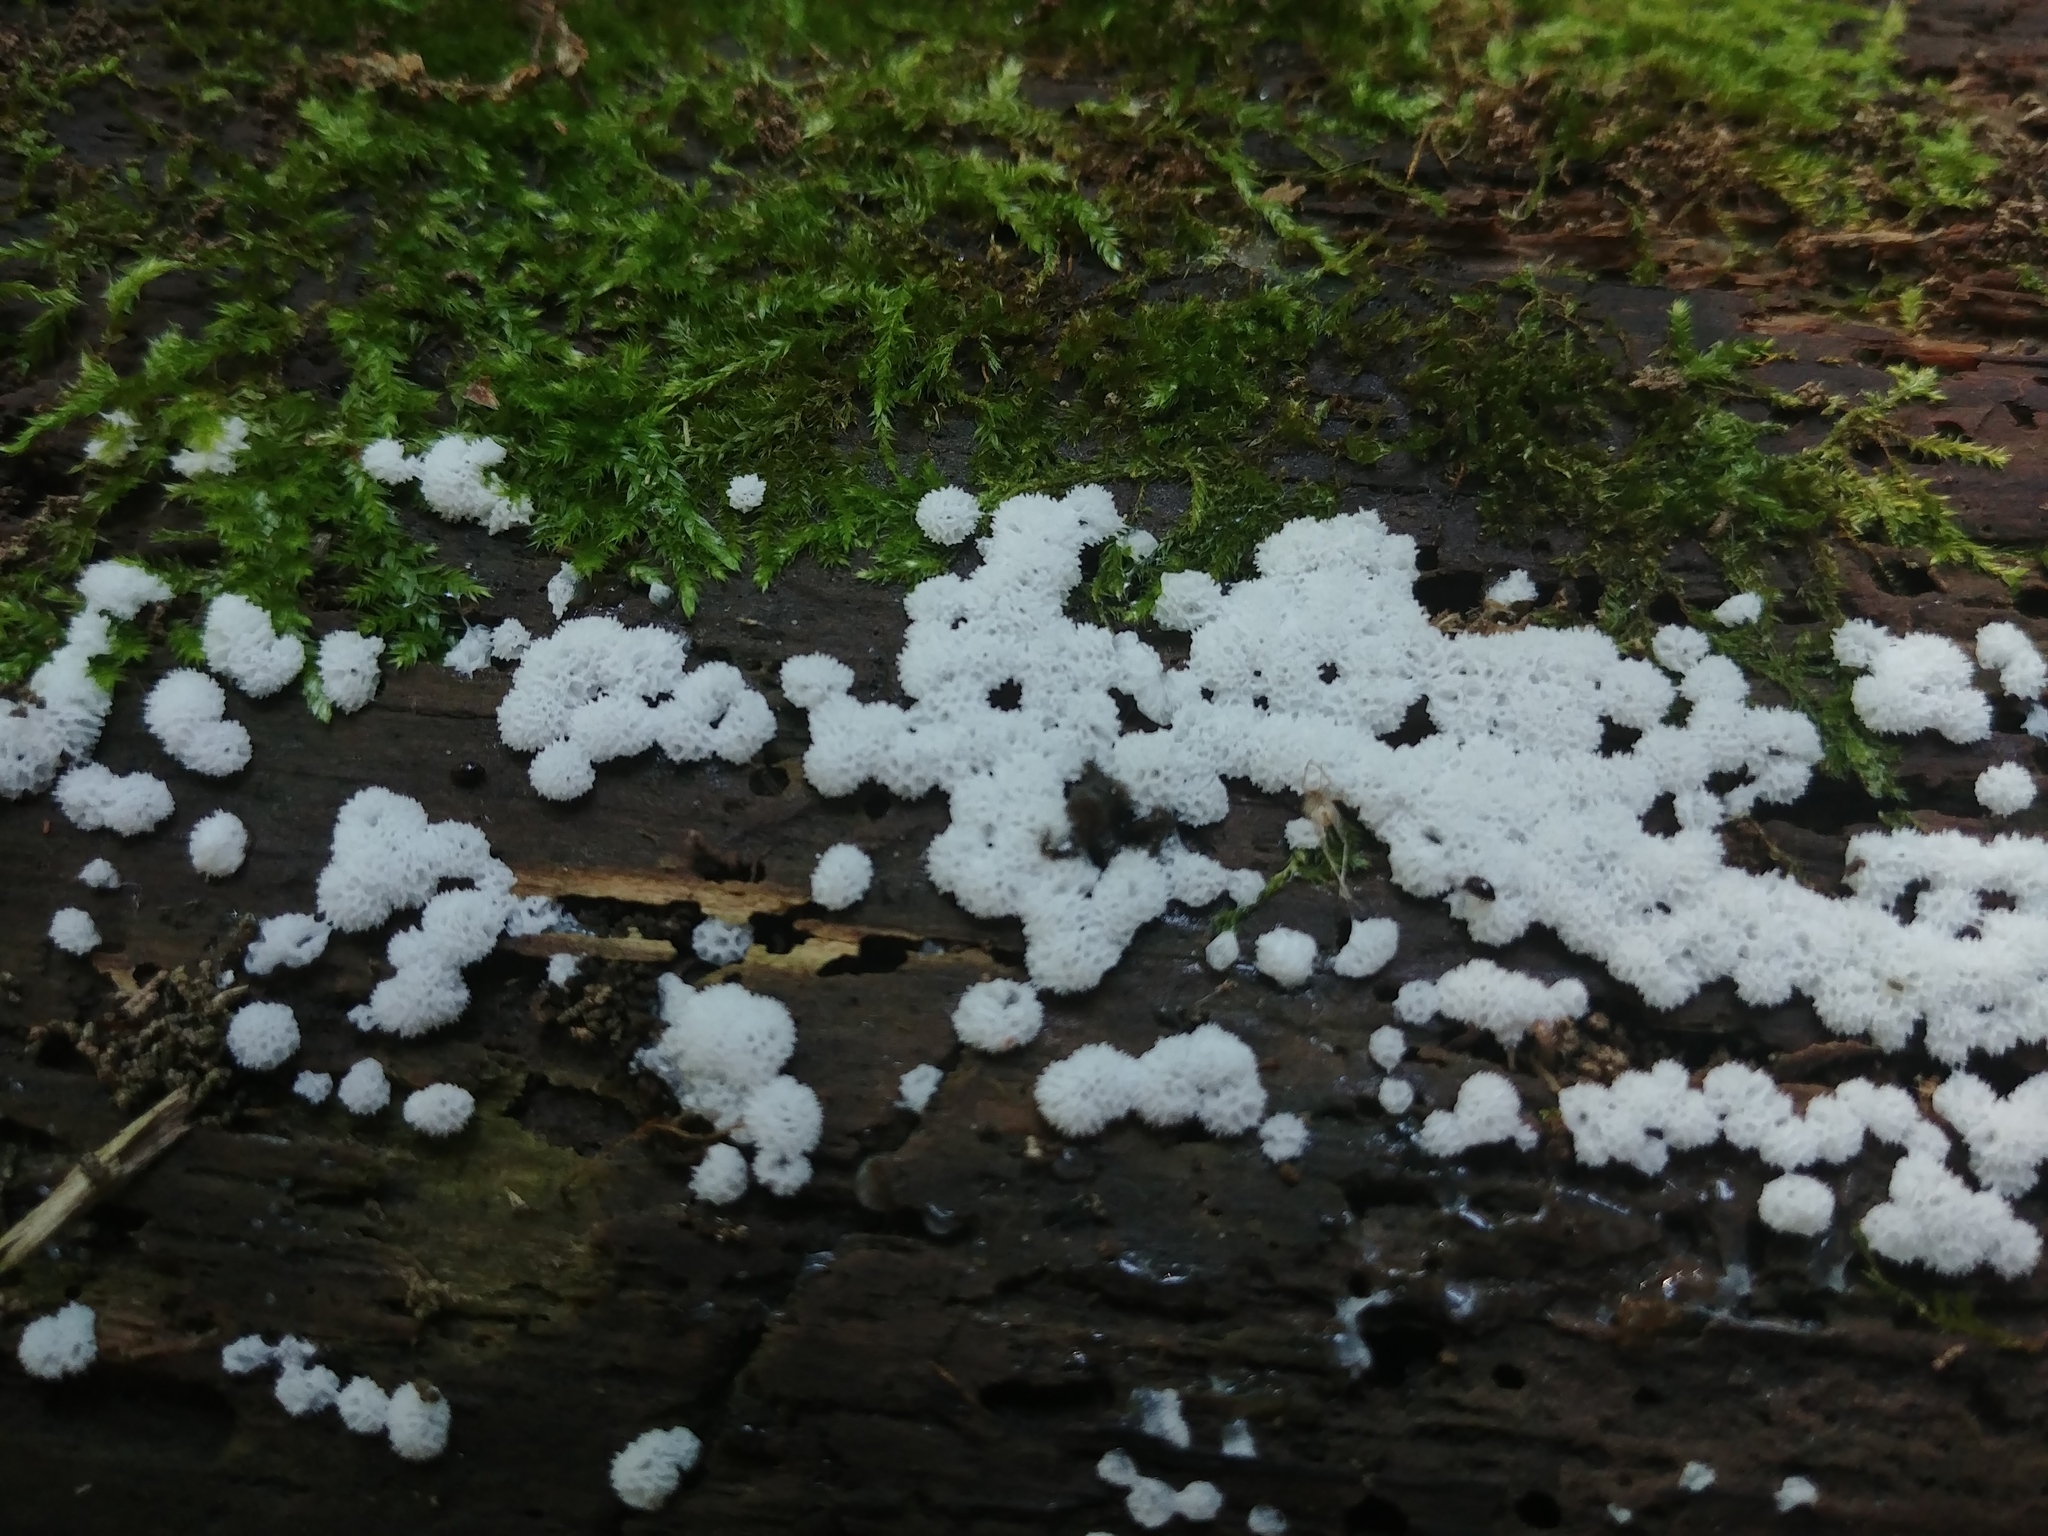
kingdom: Protozoa
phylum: Mycetozoa
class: Protosteliomycetes
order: Ceratiomyxales
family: Ceratiomyxaceae
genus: Ceratiomyxa
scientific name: Ceratiomyxa fruticulosa
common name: Honeycomb coral slime mold
